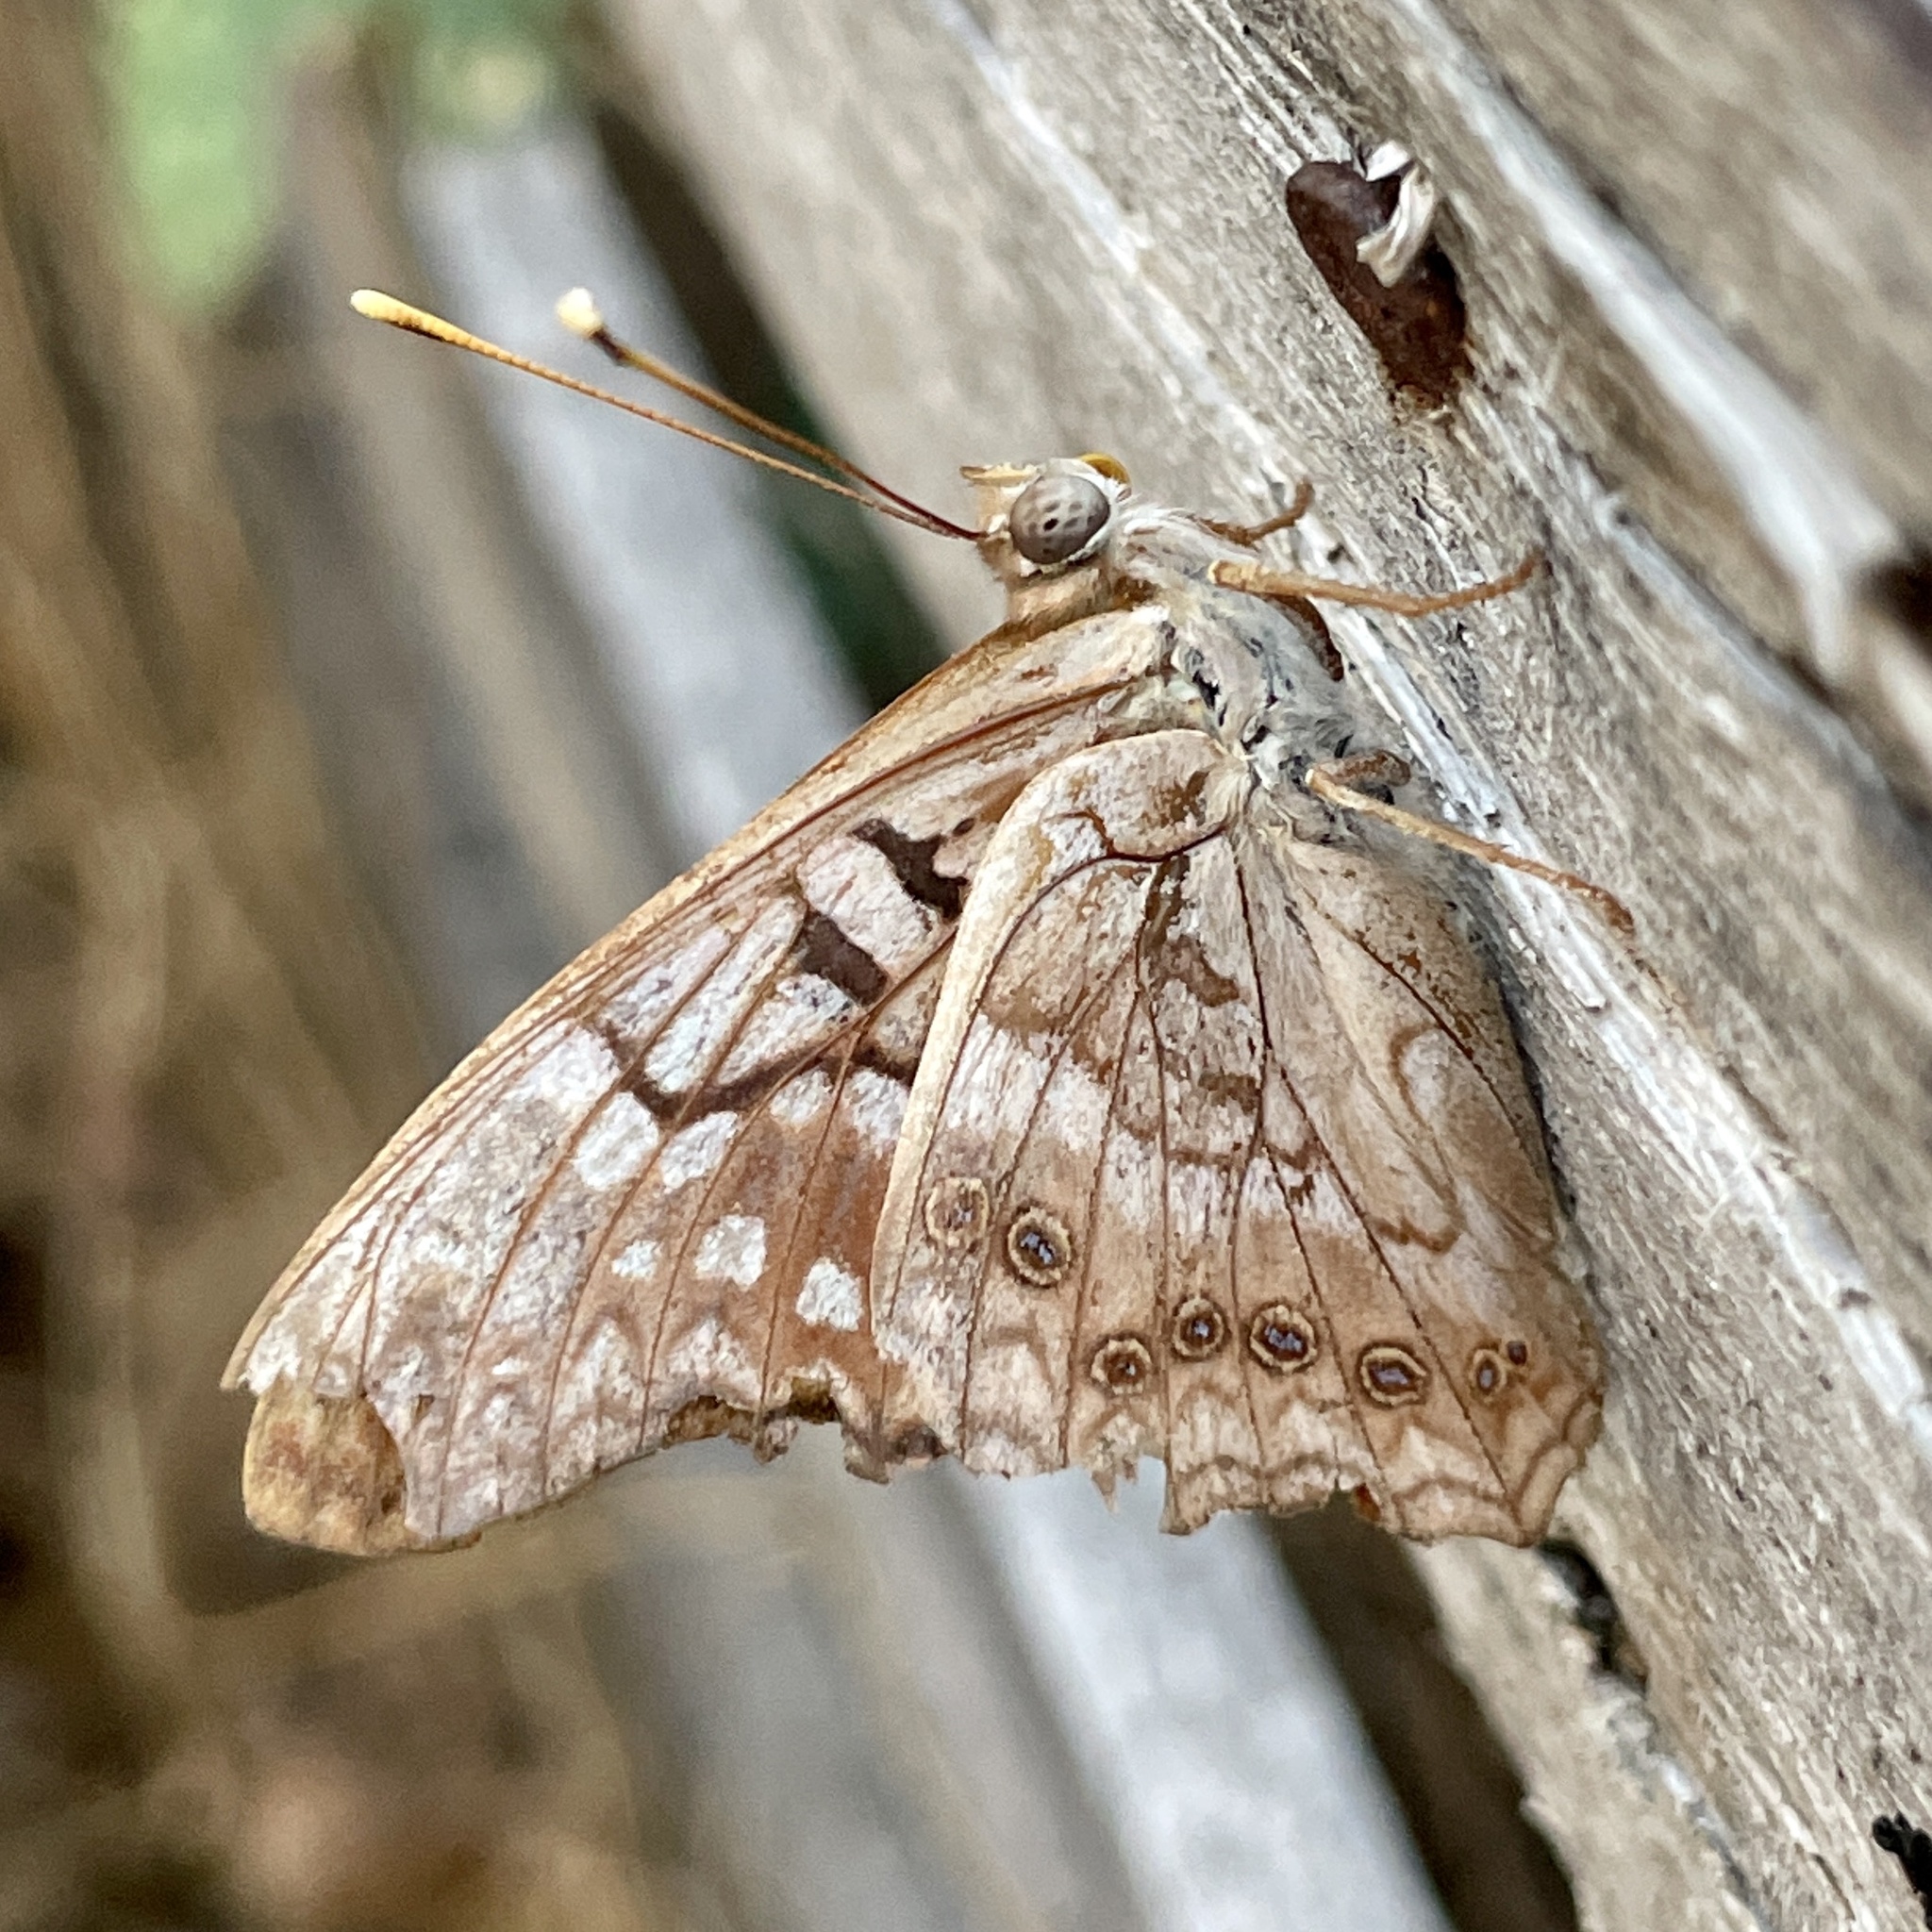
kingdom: Animalia
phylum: Arthropoda
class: Insecta
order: Lepidoptera
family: Nymphalidae
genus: Asterocampa
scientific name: Asterocampa clyton
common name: Tawny emperor
